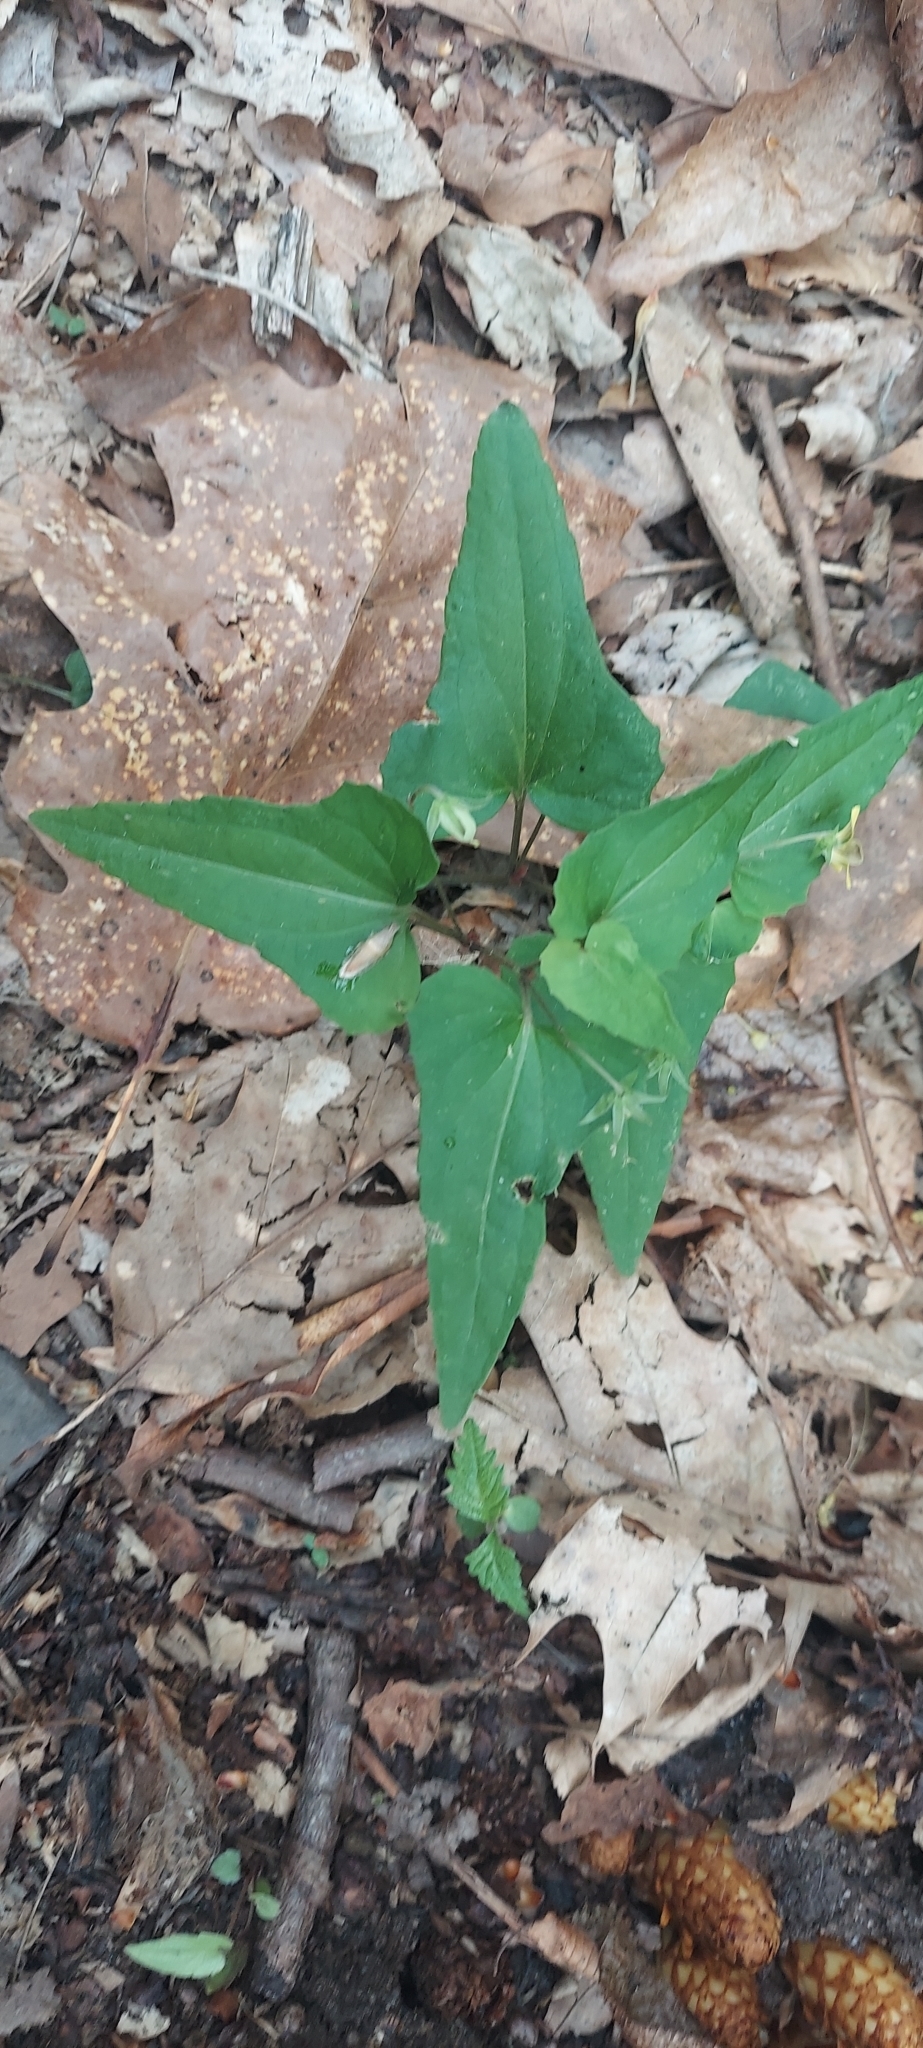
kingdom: Plantae
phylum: Tracheophyta
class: Magnoliopsida
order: Malpighiales
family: Violaceae
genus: Viola
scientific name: Viola hastata
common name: Spear-leaf violet
